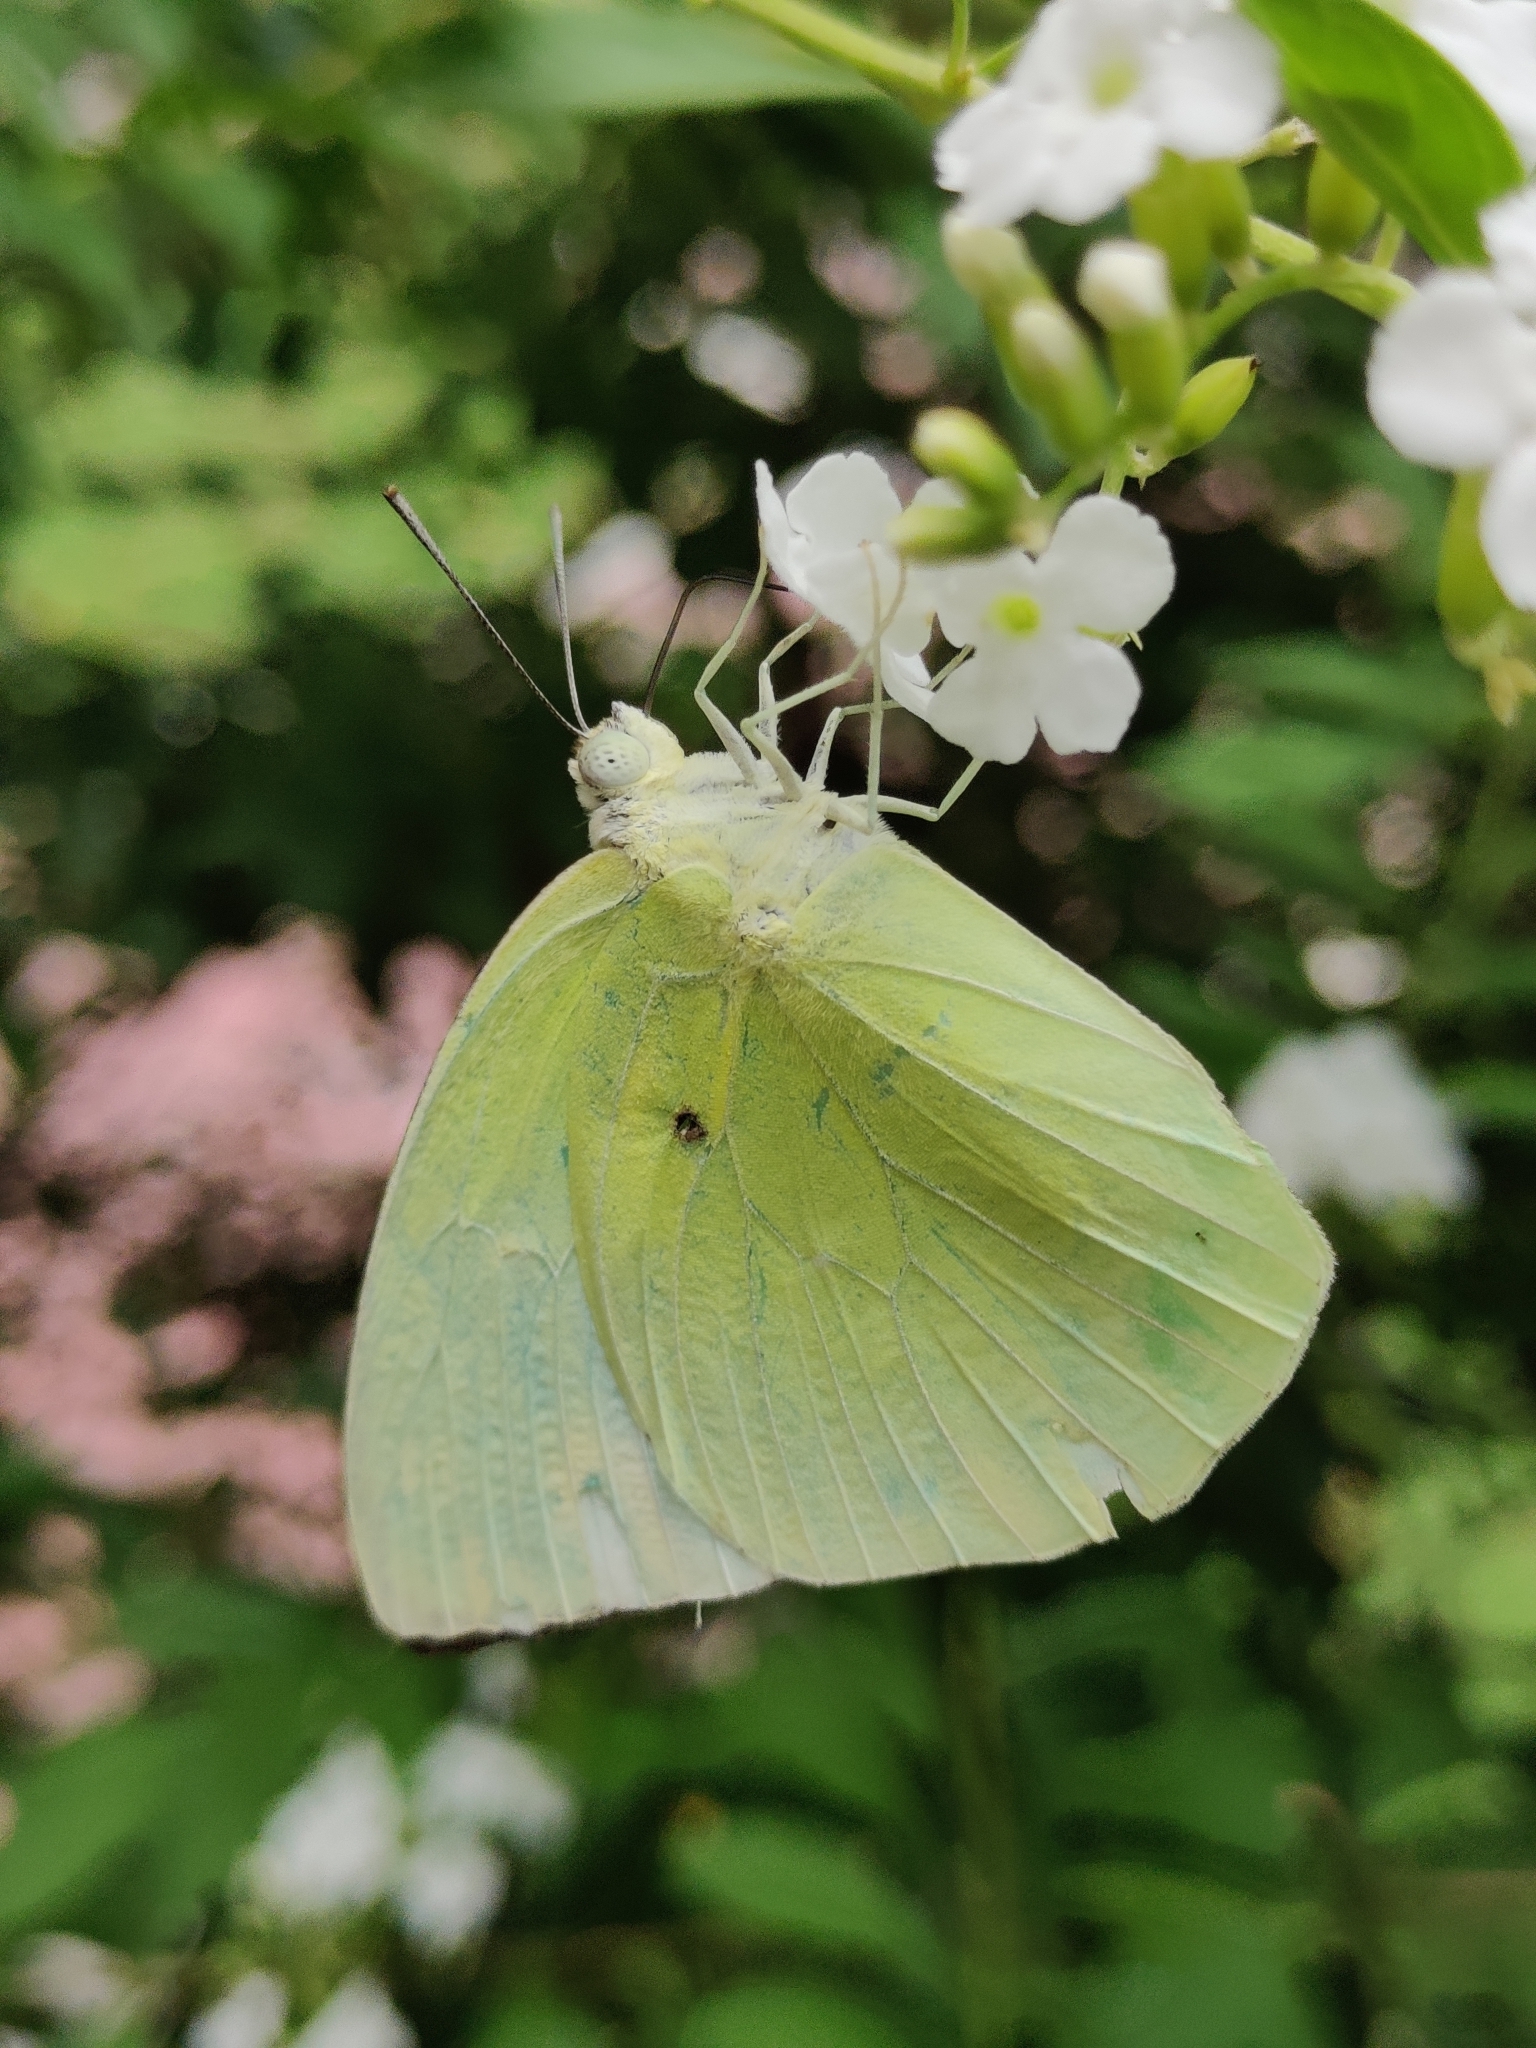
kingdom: Animalia
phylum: Arthropoda
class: Insecta
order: Lepidoptera
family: Pieridae
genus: Catopsilia
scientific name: Catopsilia pomona
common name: Common emigrant
